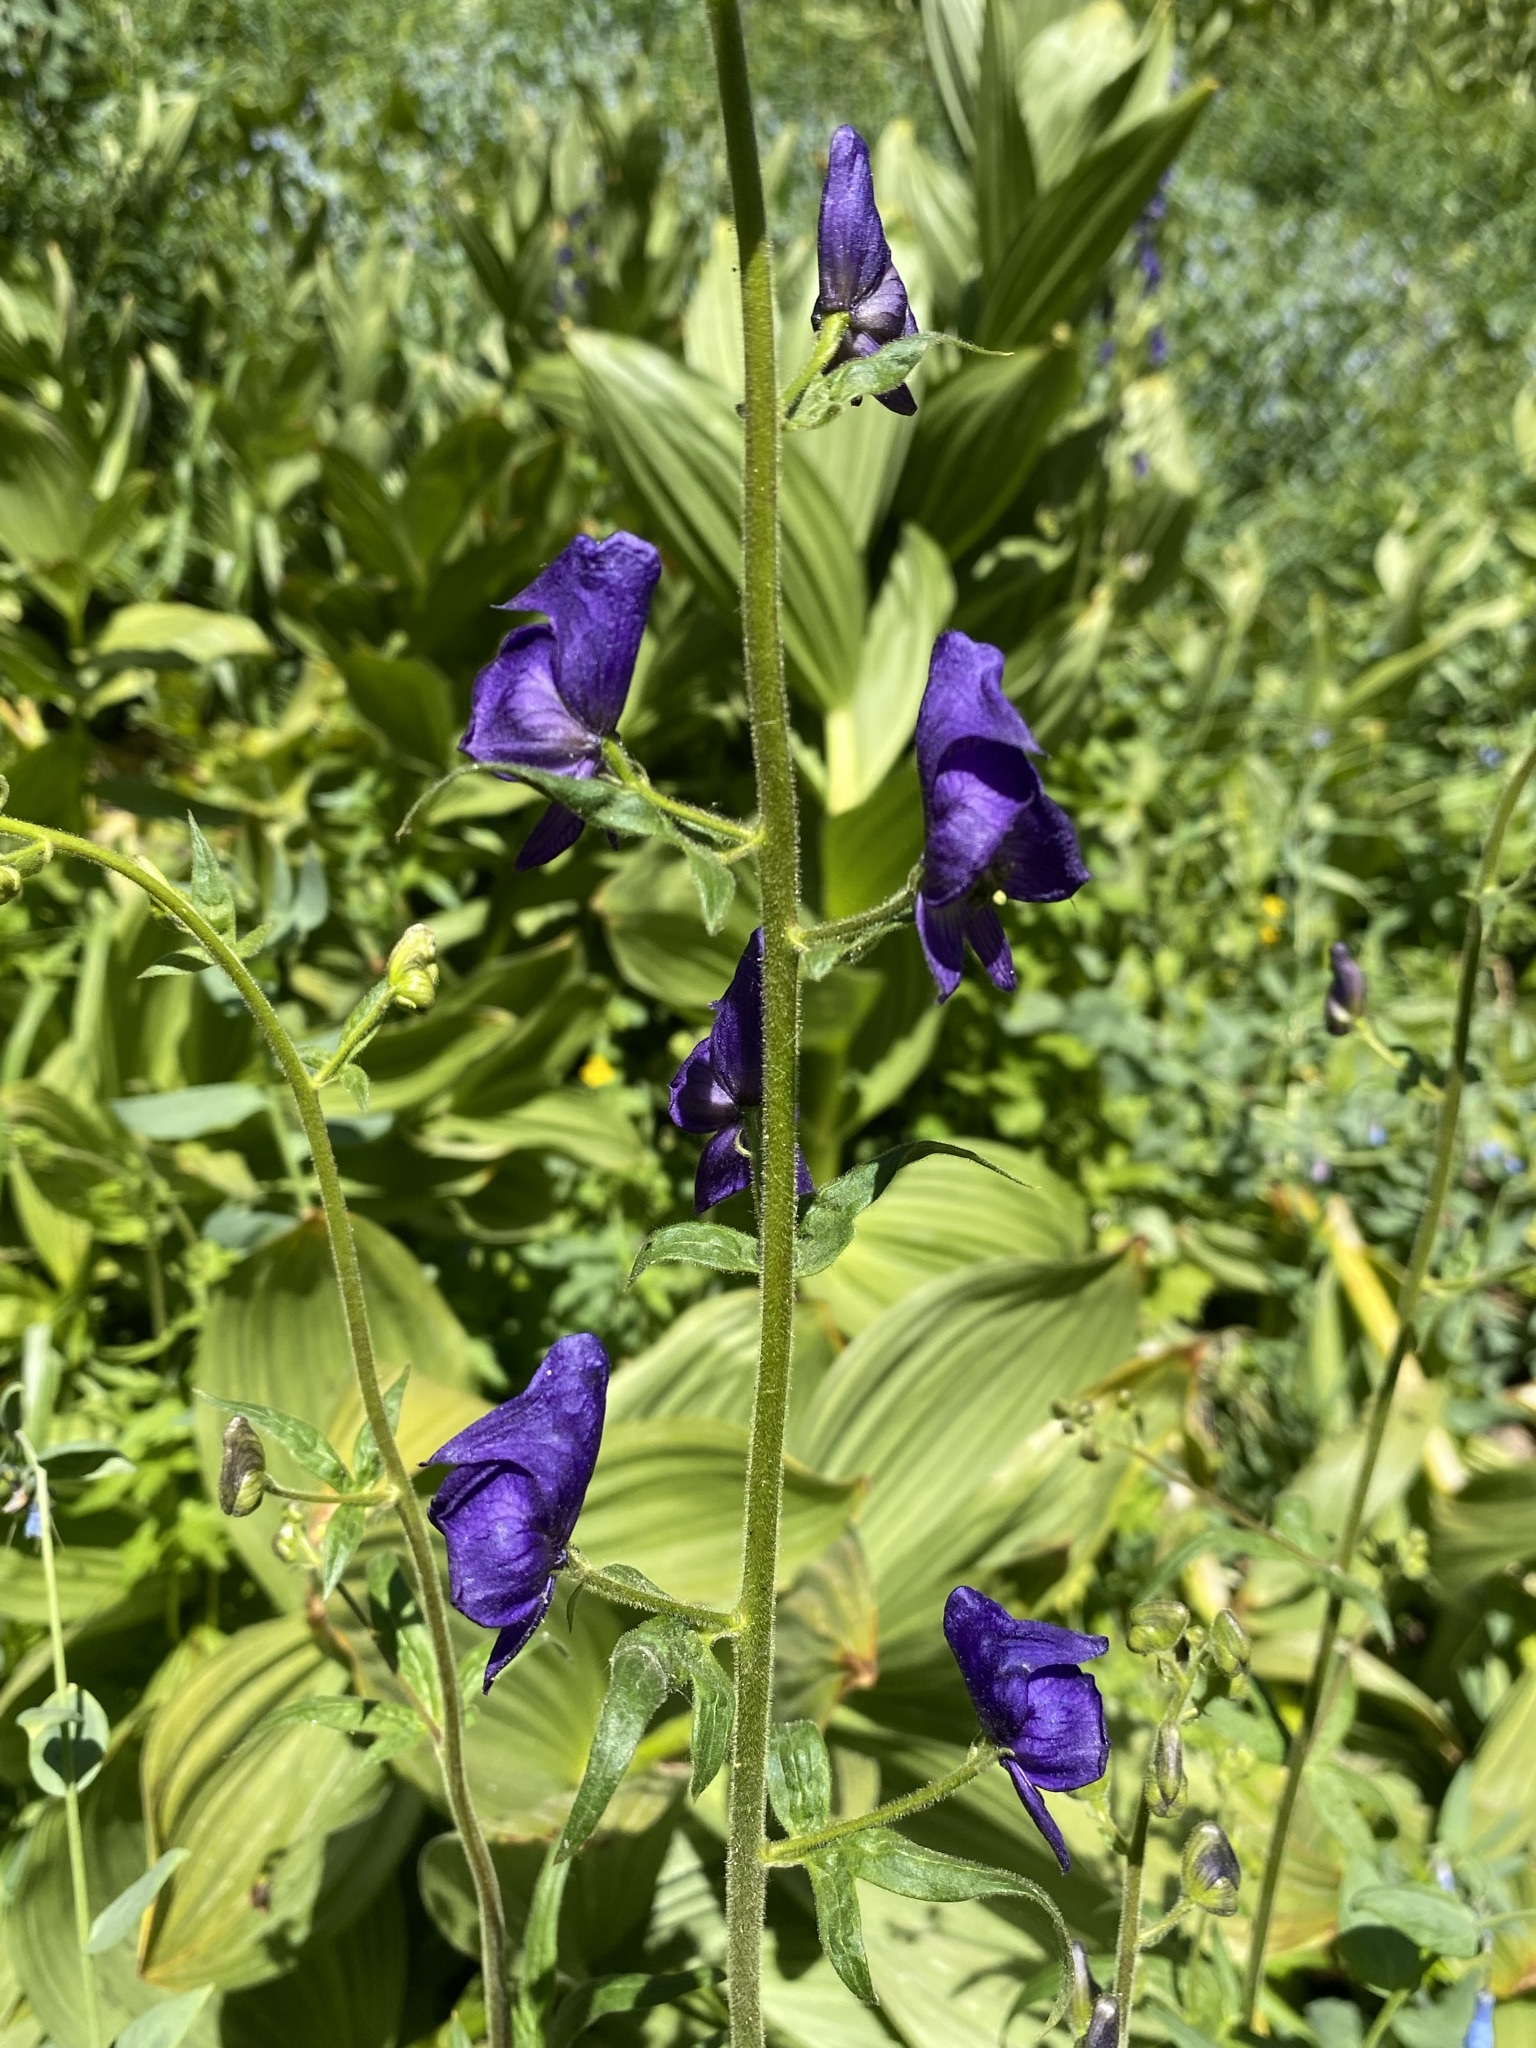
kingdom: Plantae
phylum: Tracheophyta
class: Magnoliopsida
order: Ranunculales
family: Ranunculaceae
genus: Aconitum
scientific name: Aconitum columbianum
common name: Columbia aconite
